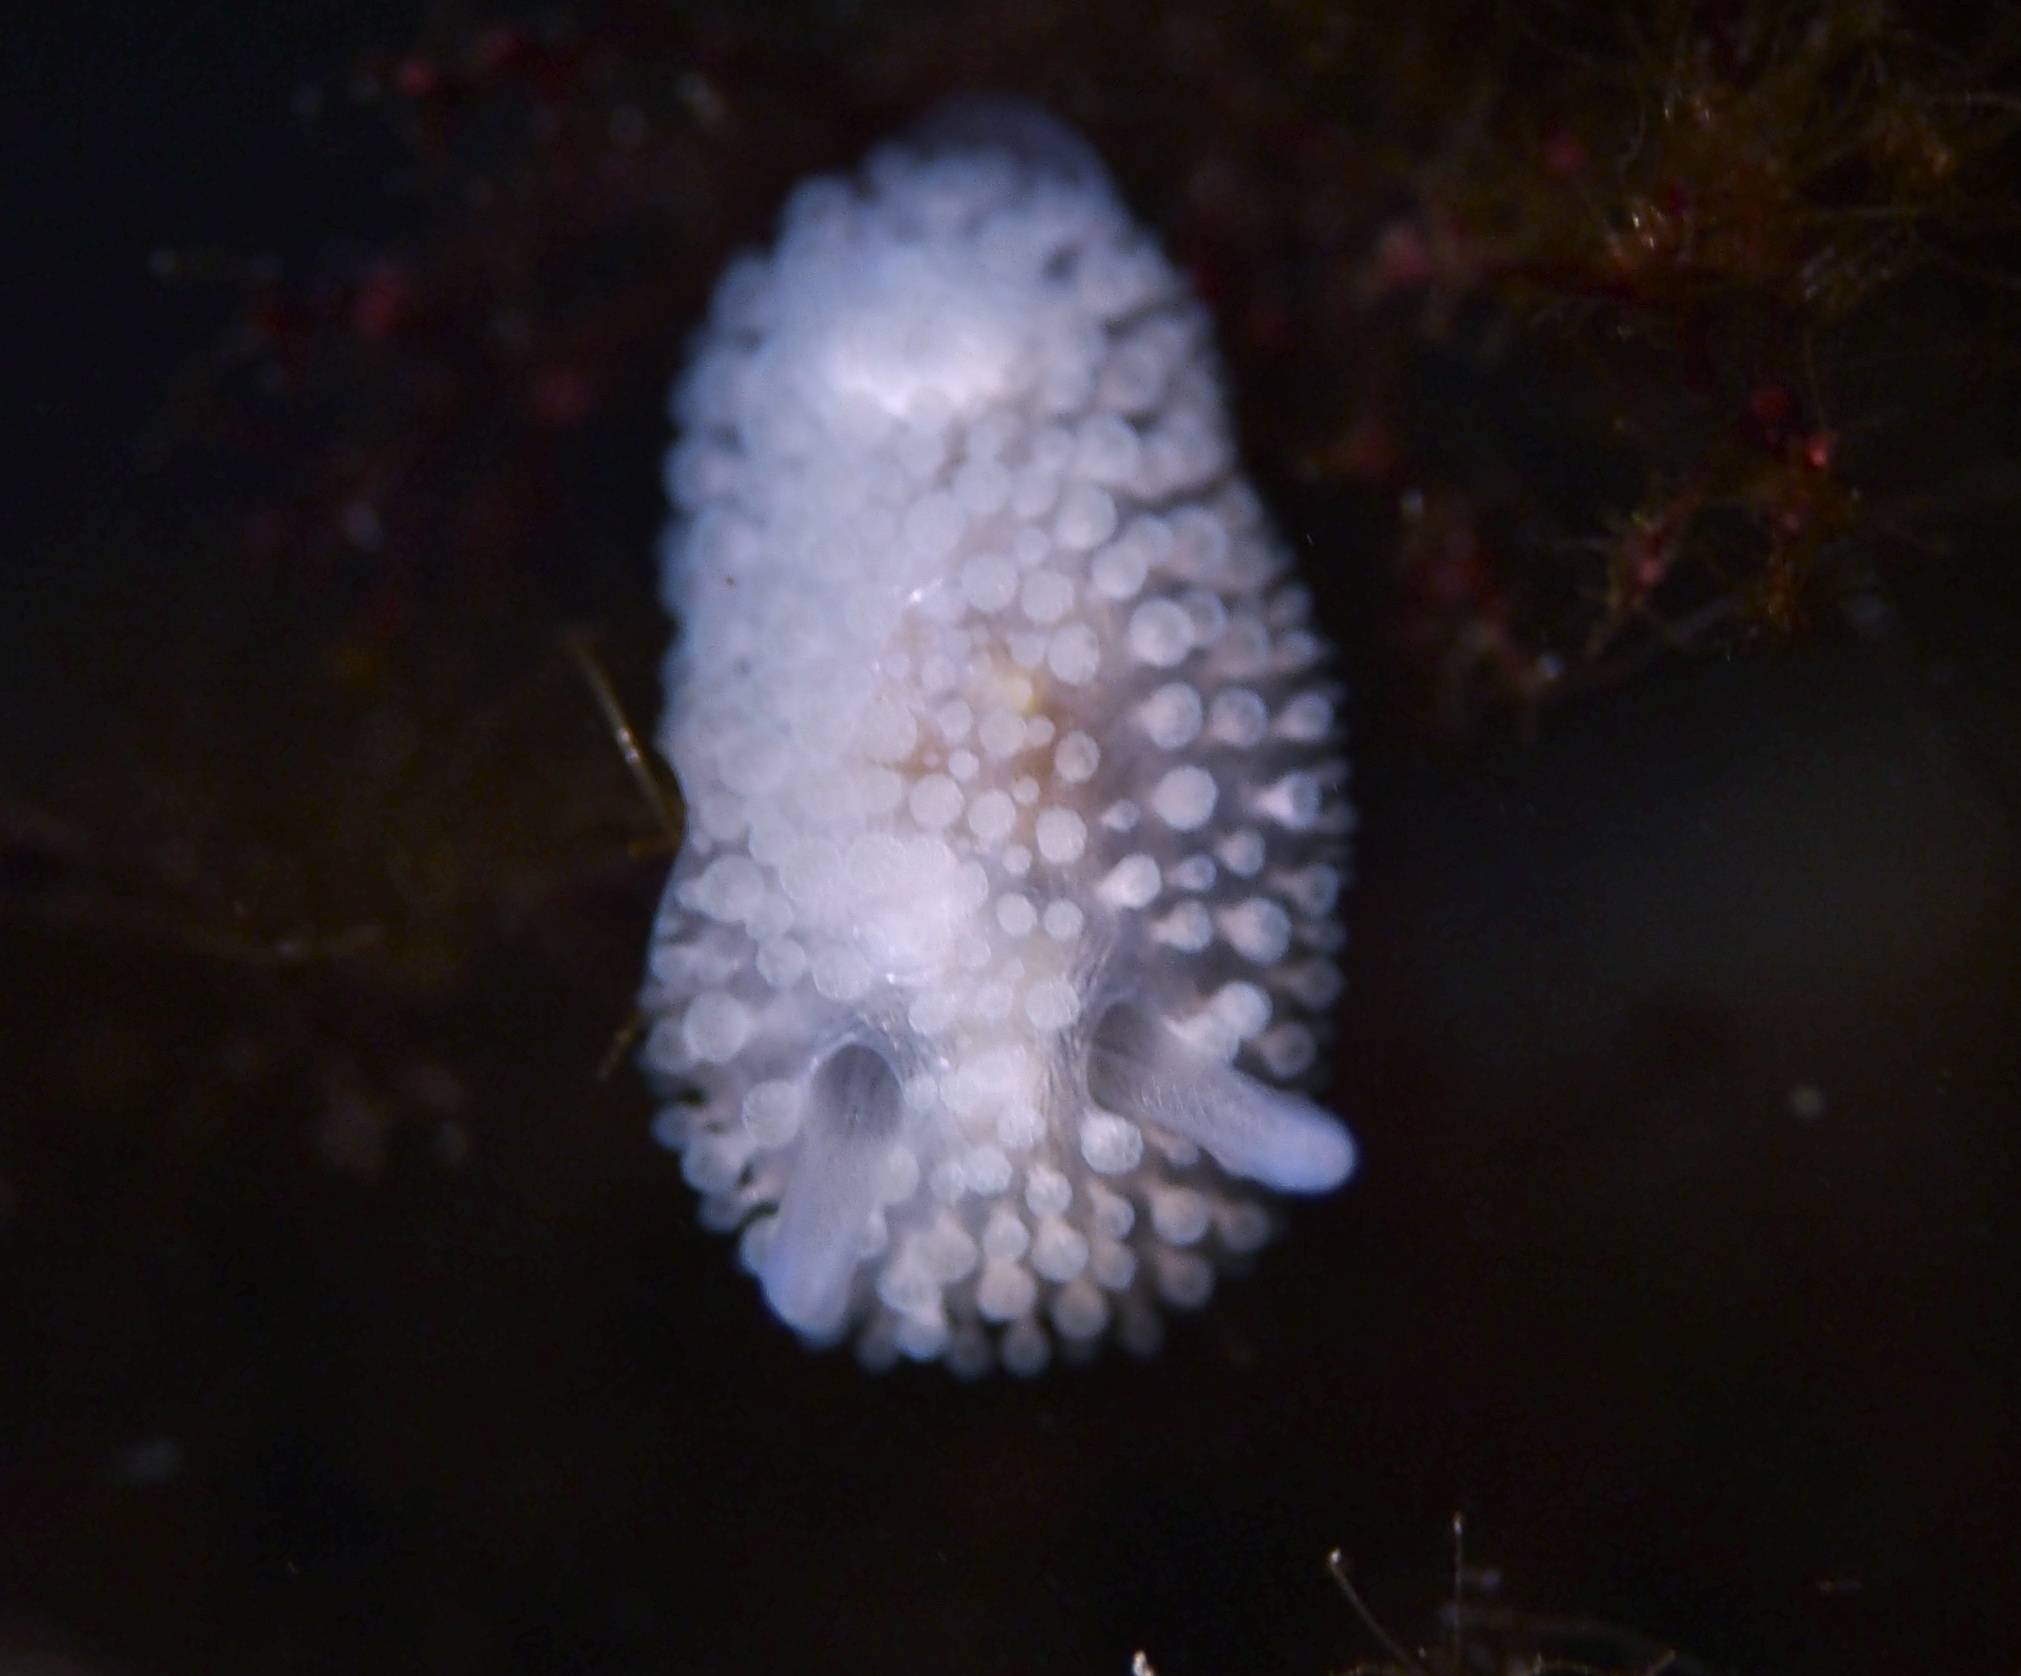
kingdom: Animalia
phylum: Mollusca
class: Gastropoda
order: Nudibranchia
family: Onchidorididae
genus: Onchidoris
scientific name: Onchidoris muricata
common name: Rough doris
